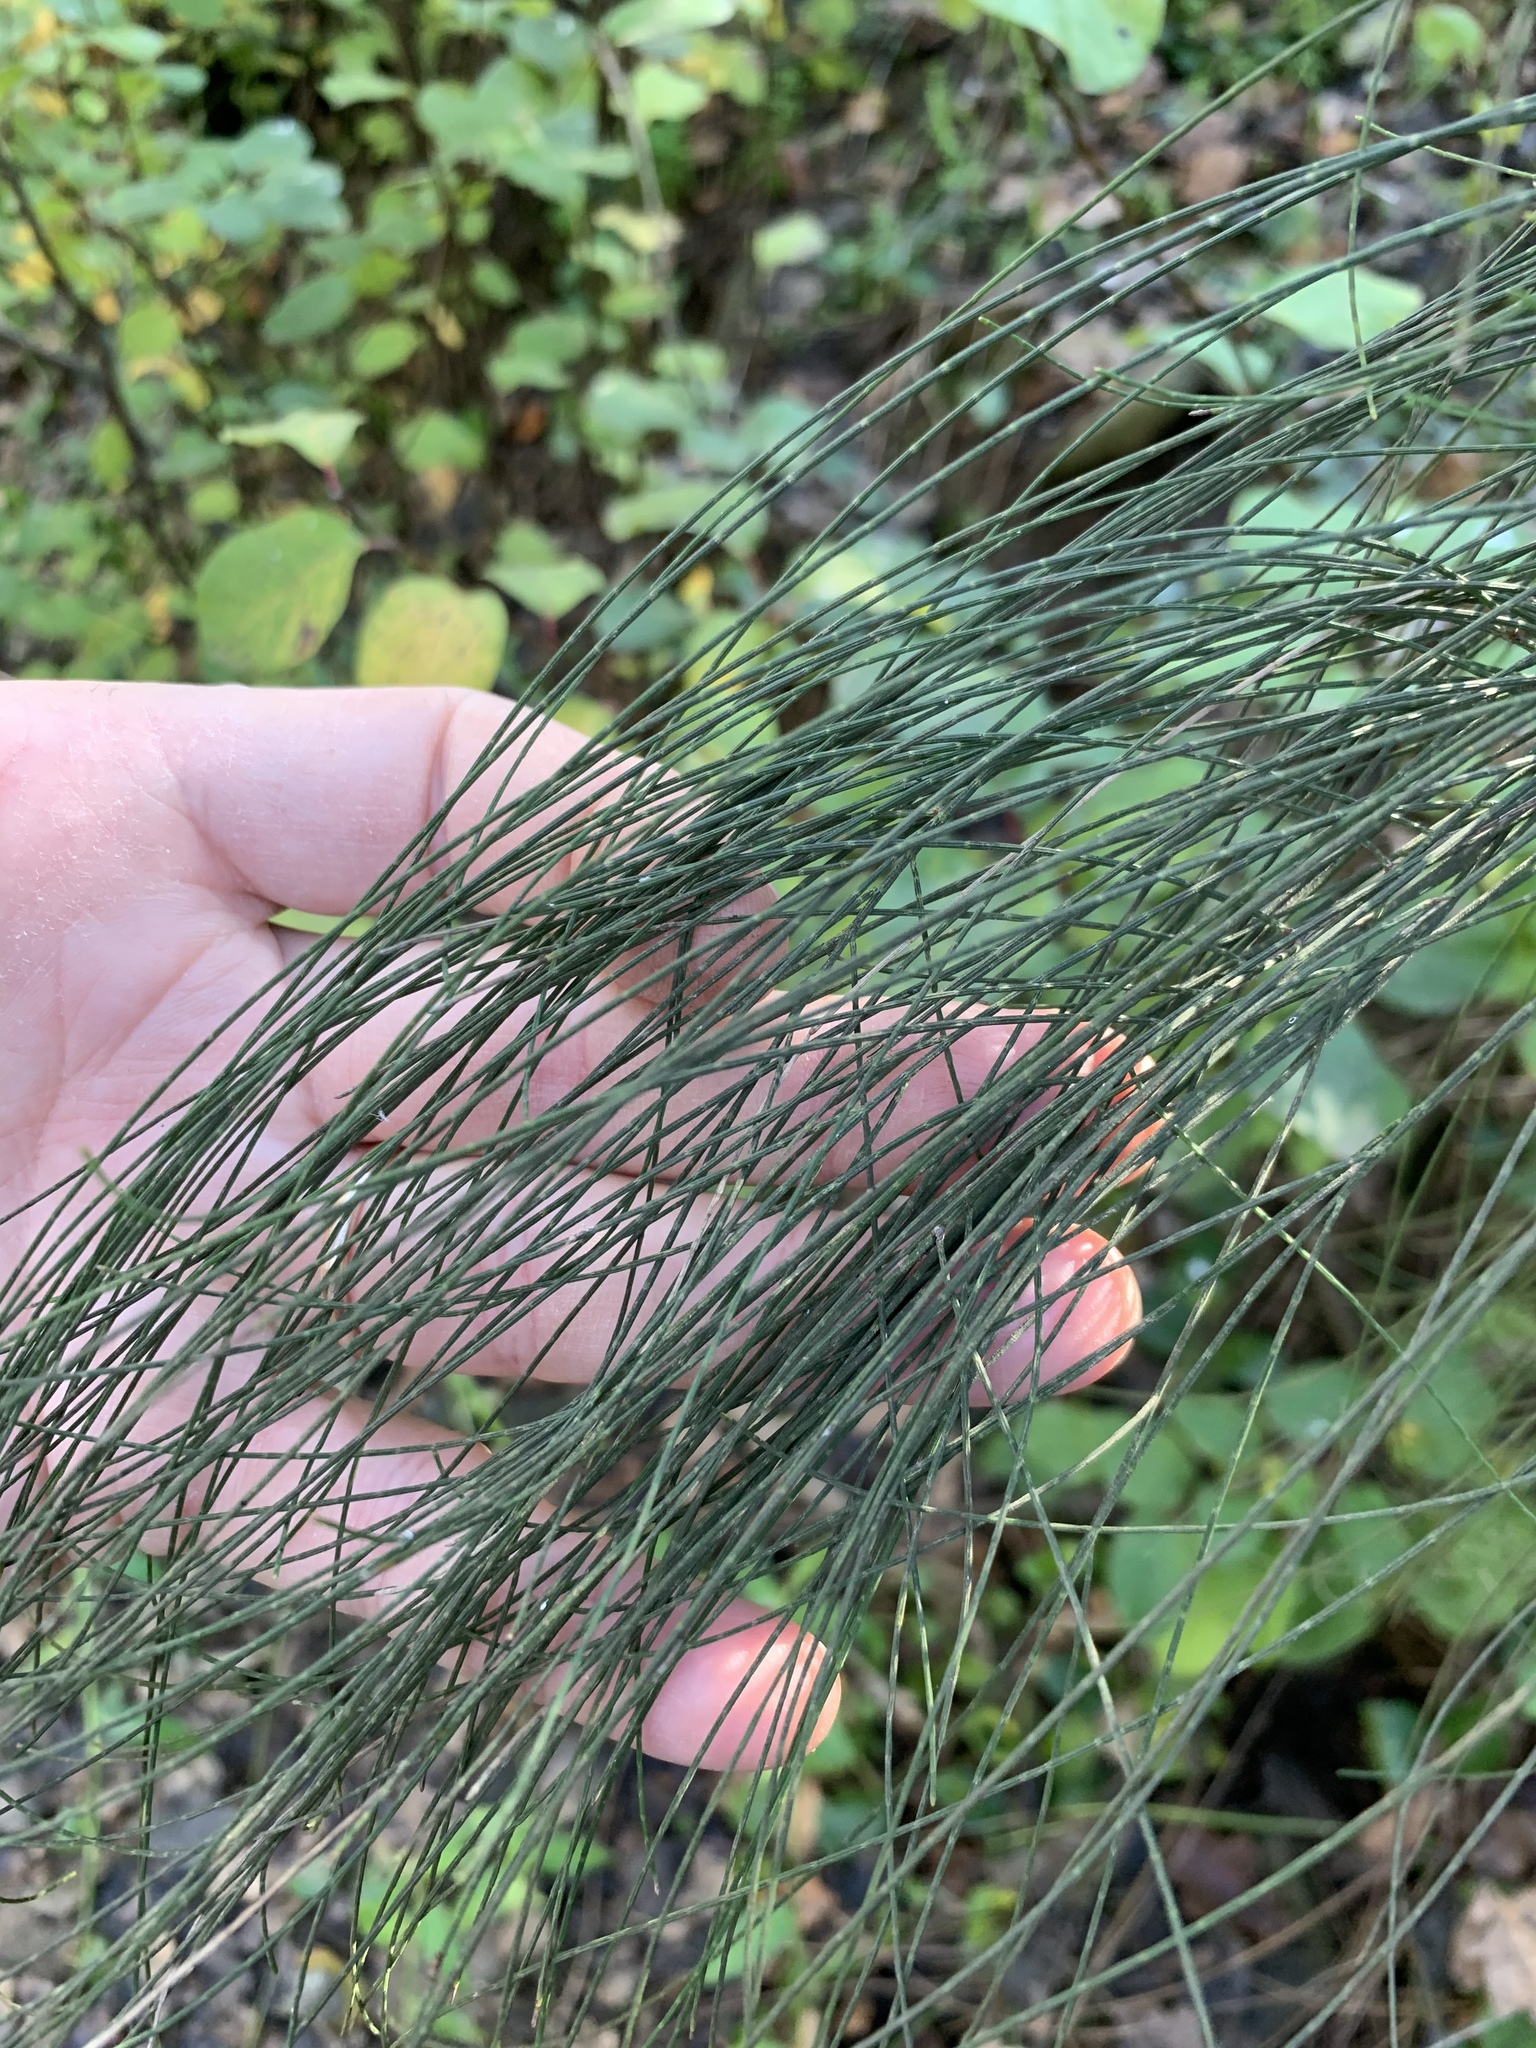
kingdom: Plantae
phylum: Tracheophyta
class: Magnoliopsida
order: Fagales
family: Casuarinaceae
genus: Casuarina
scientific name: Casuarina cunninghamiana
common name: River sheoak
